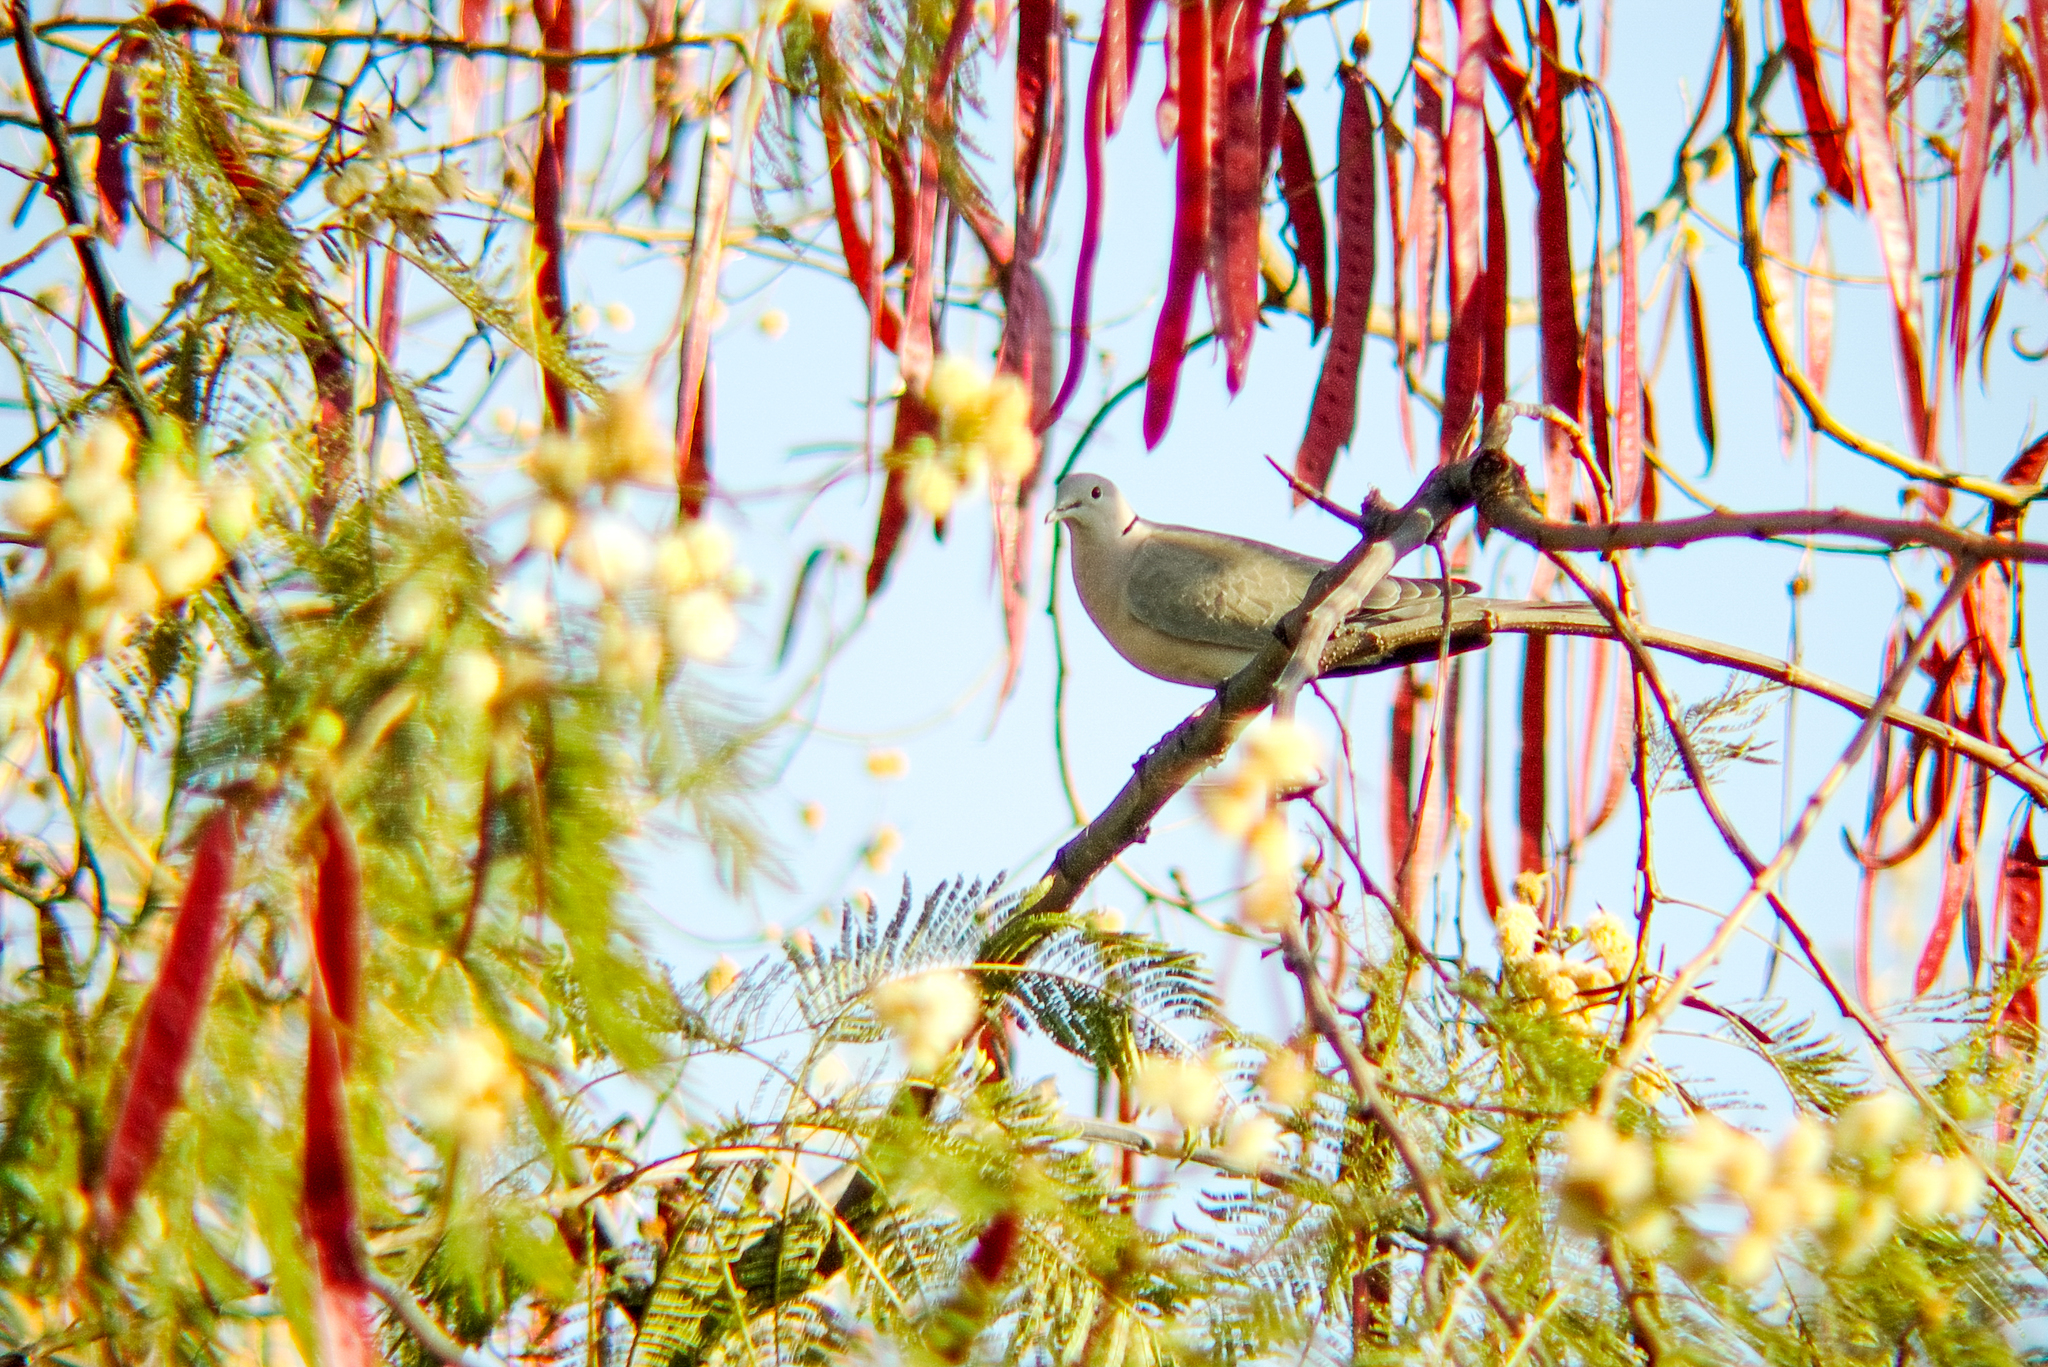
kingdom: Animalia
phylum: Chordata
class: Aves
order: Columbiformes
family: Columbidae
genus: Streptopelia
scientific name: Streptopelia decaocto
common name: Eurasian collared dove
